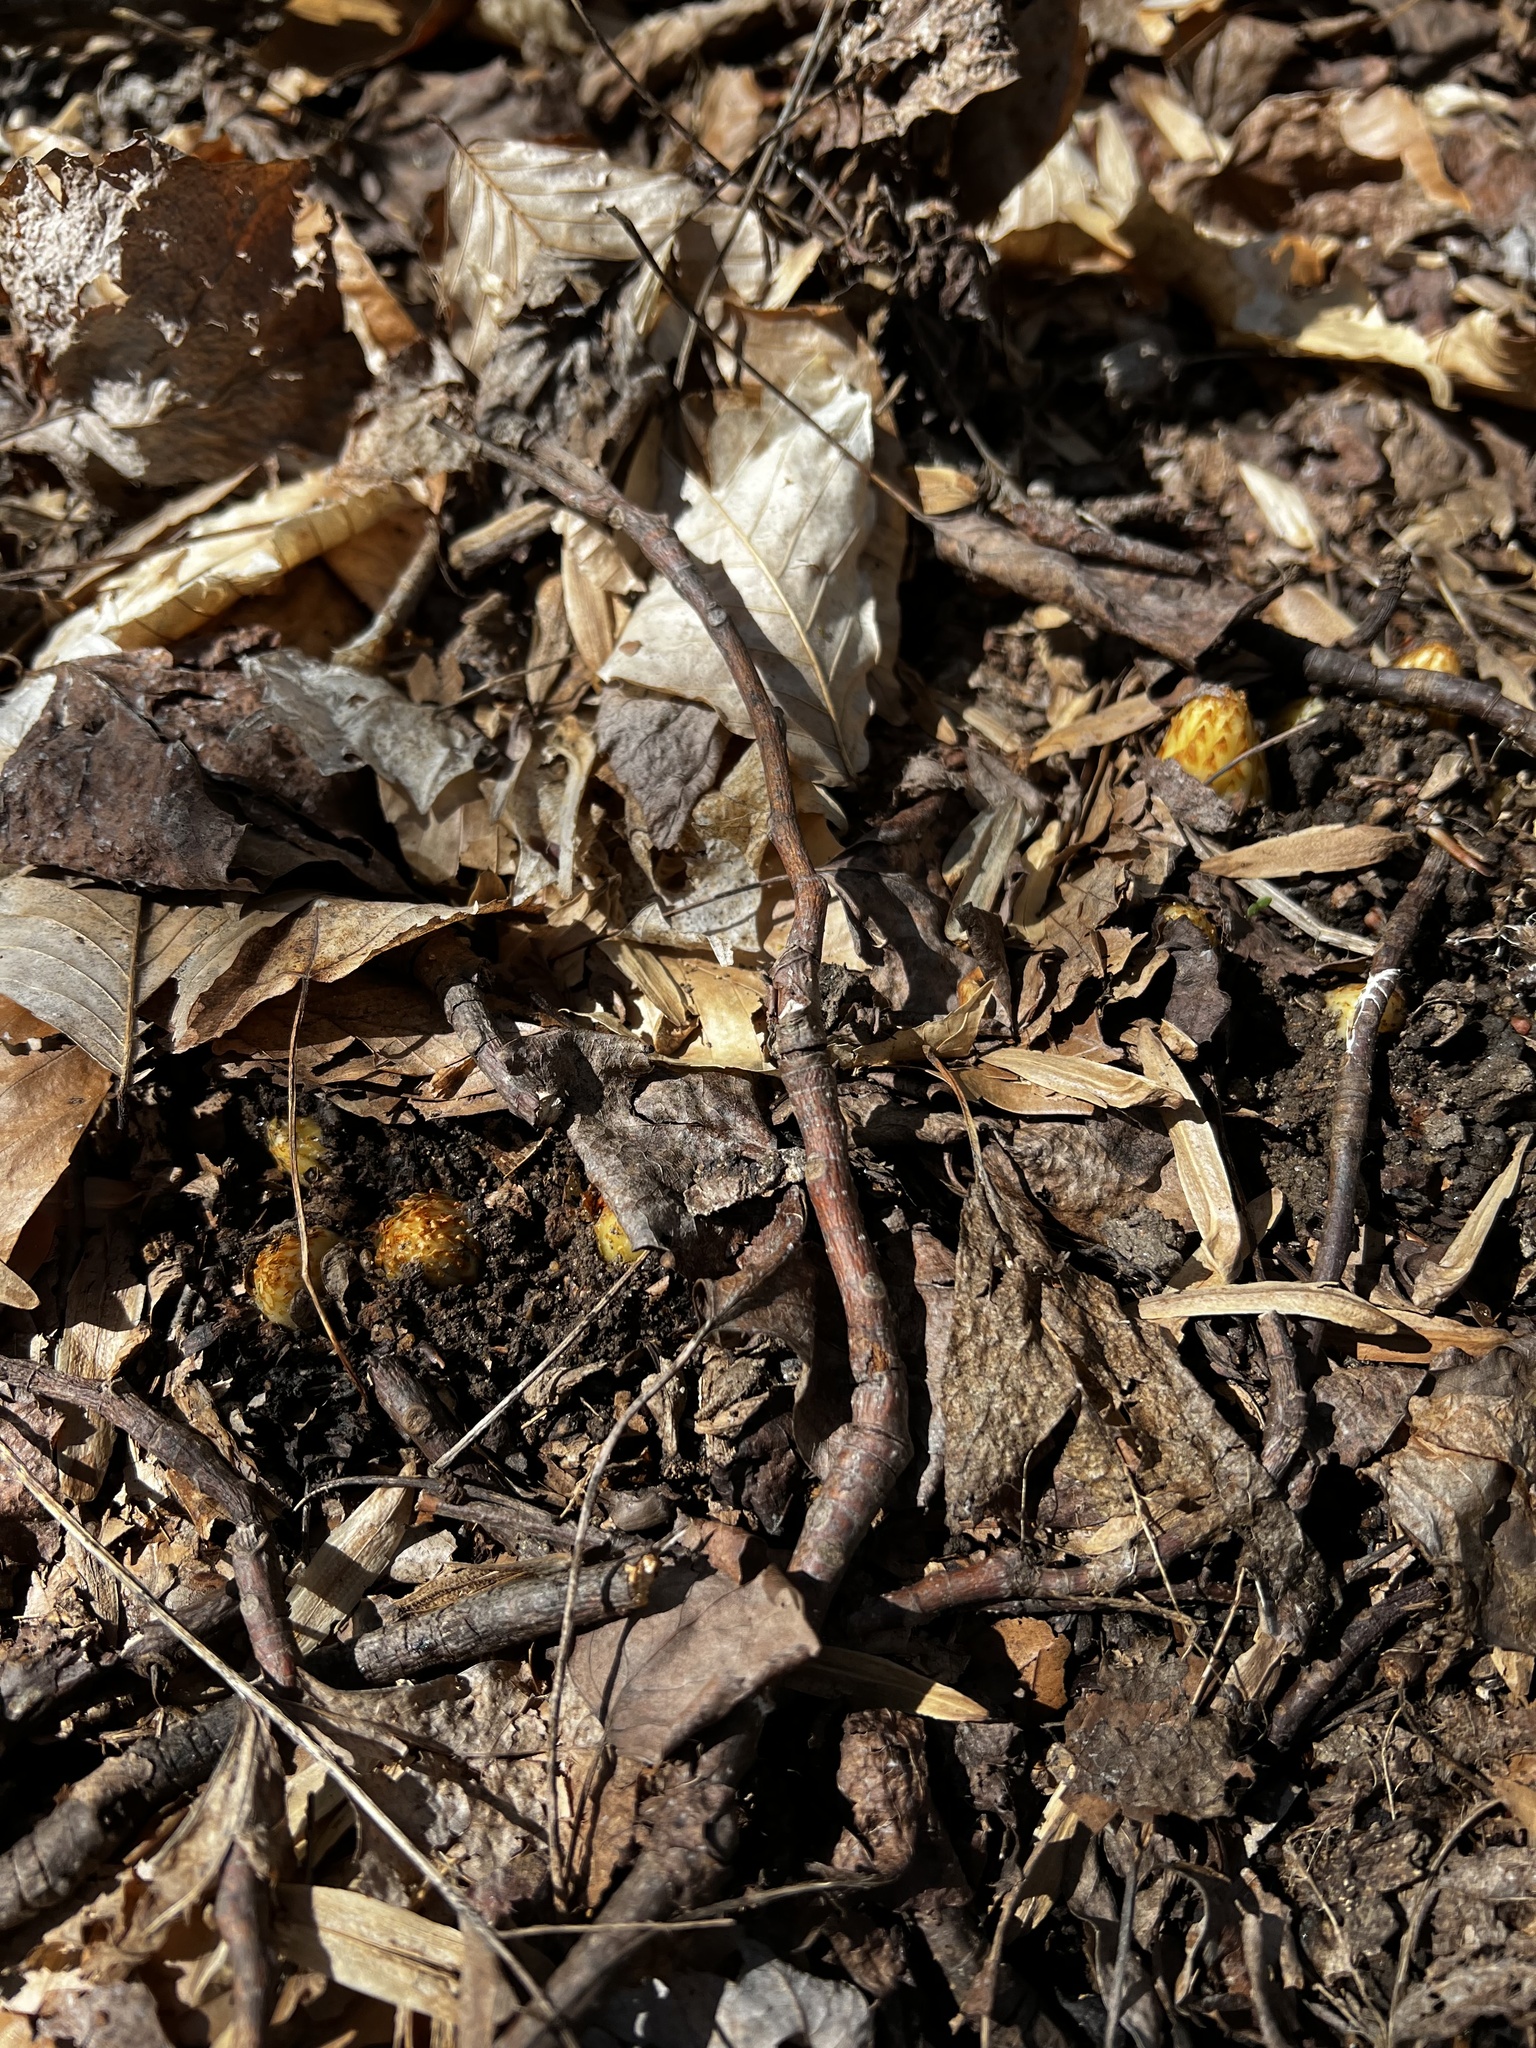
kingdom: Plantae
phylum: Tracheophyta
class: Magnoliopsida
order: Lamiales
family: Orobanchaceae
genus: Conopholis
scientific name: Conopholis americana
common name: American cancer-root
